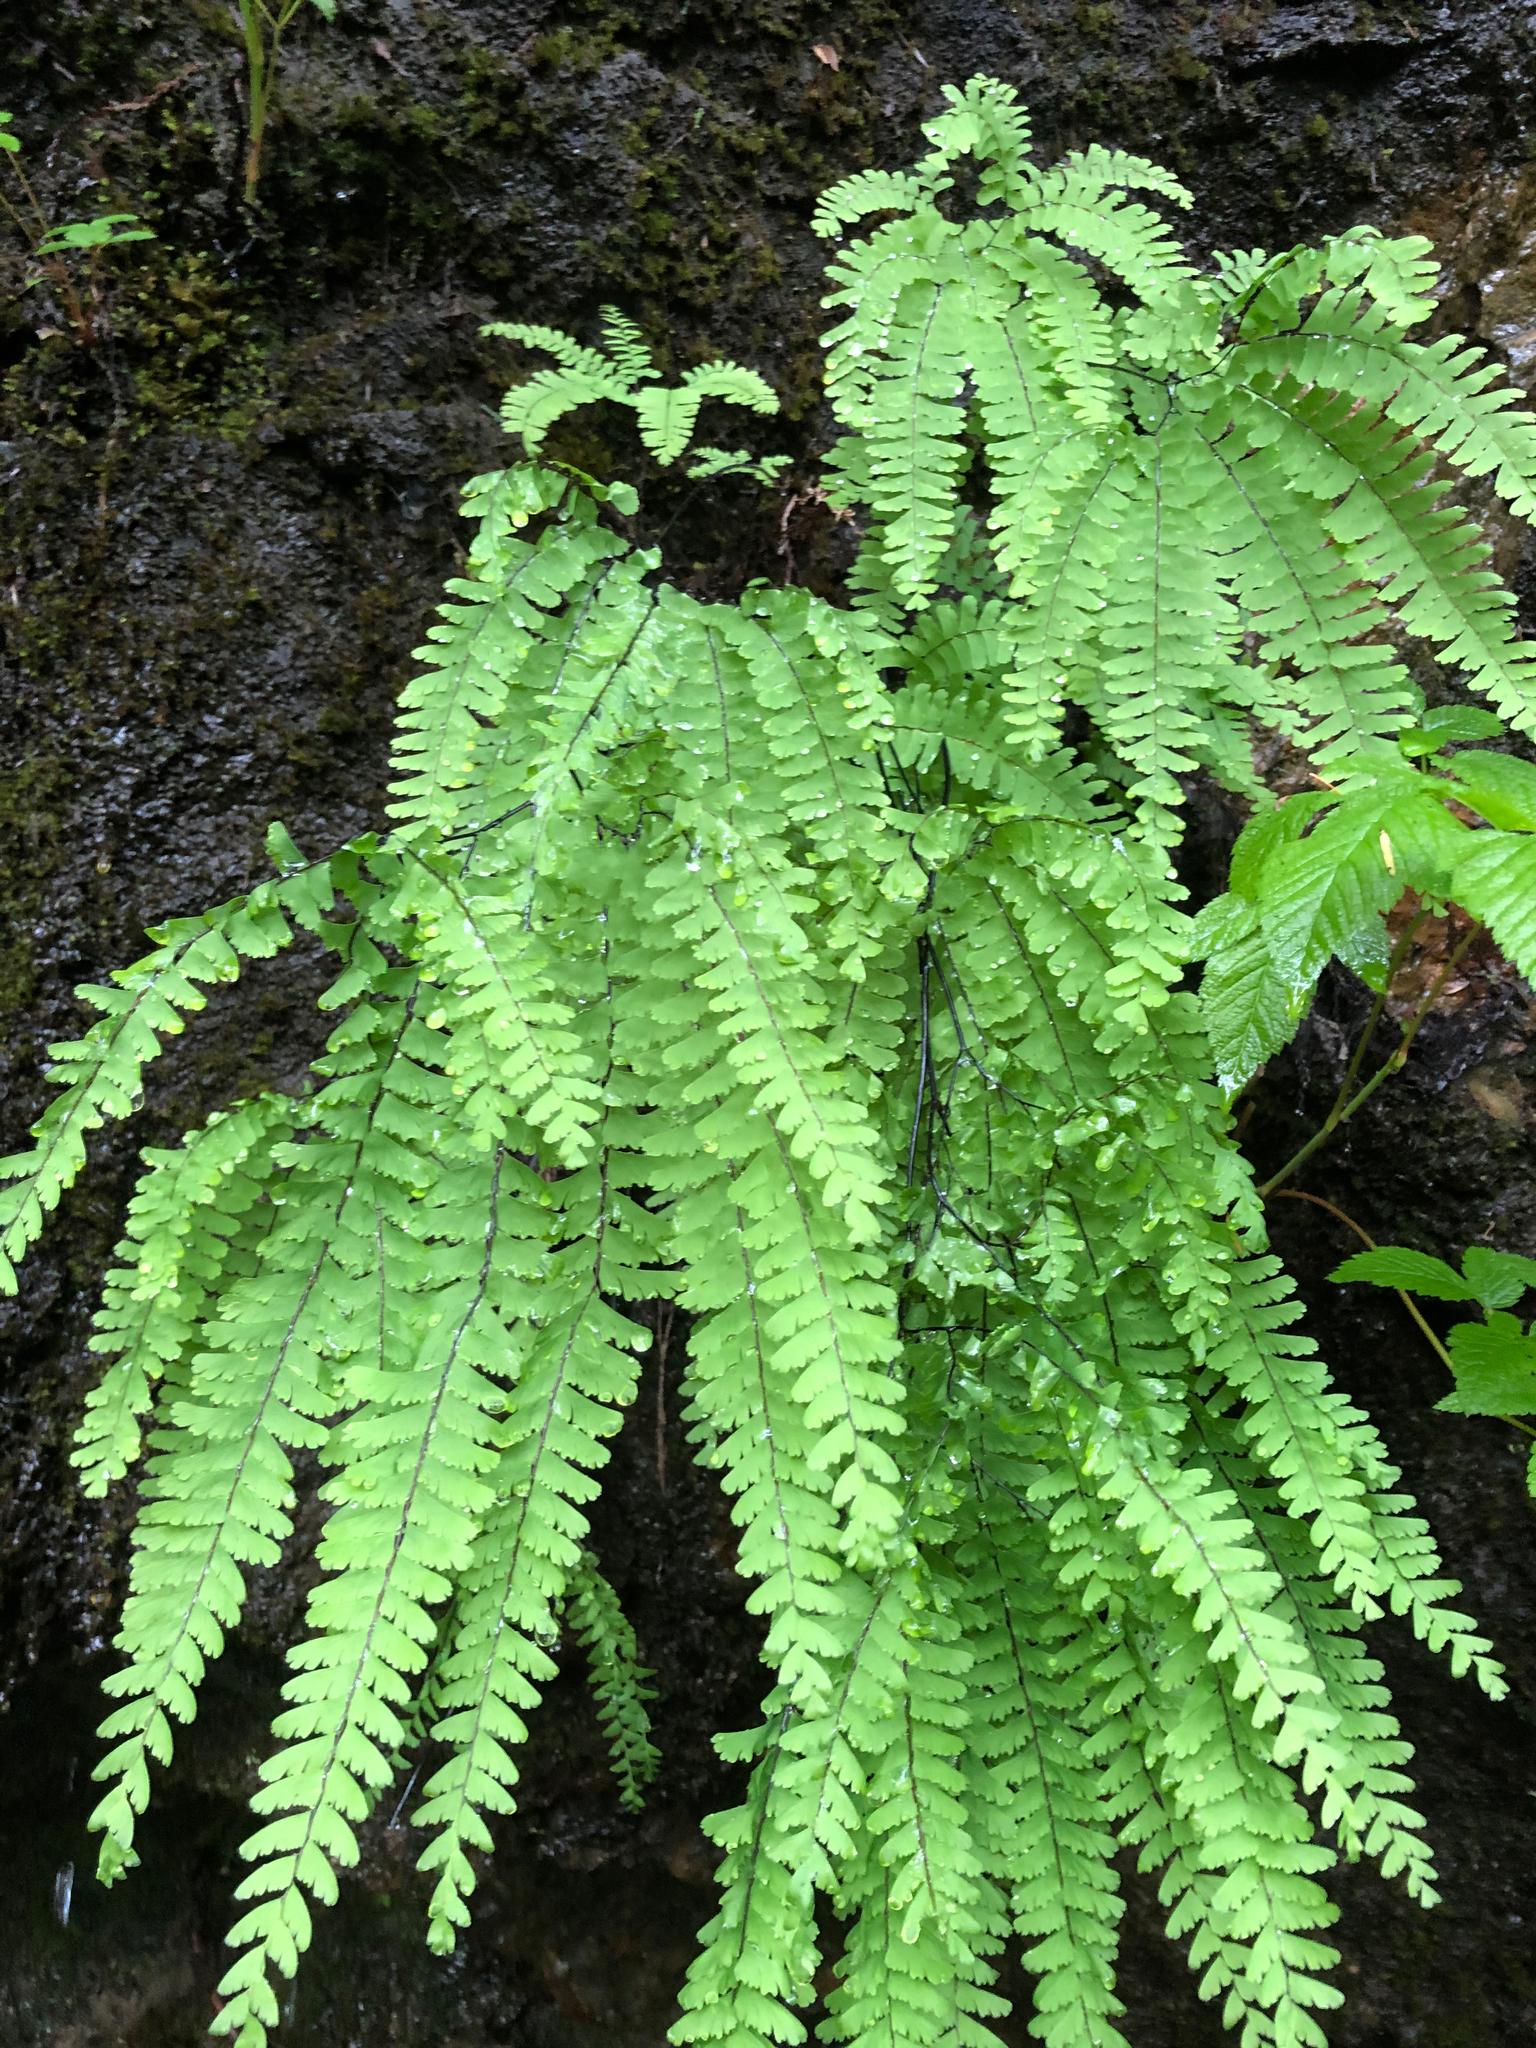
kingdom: Plantae
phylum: Tracheophyta
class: Polypodiopsida
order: Polypodiales
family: Pteridaceae
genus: Adiantum
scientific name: Adiantum aleuticum
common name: Aleutian maidenhair fern
